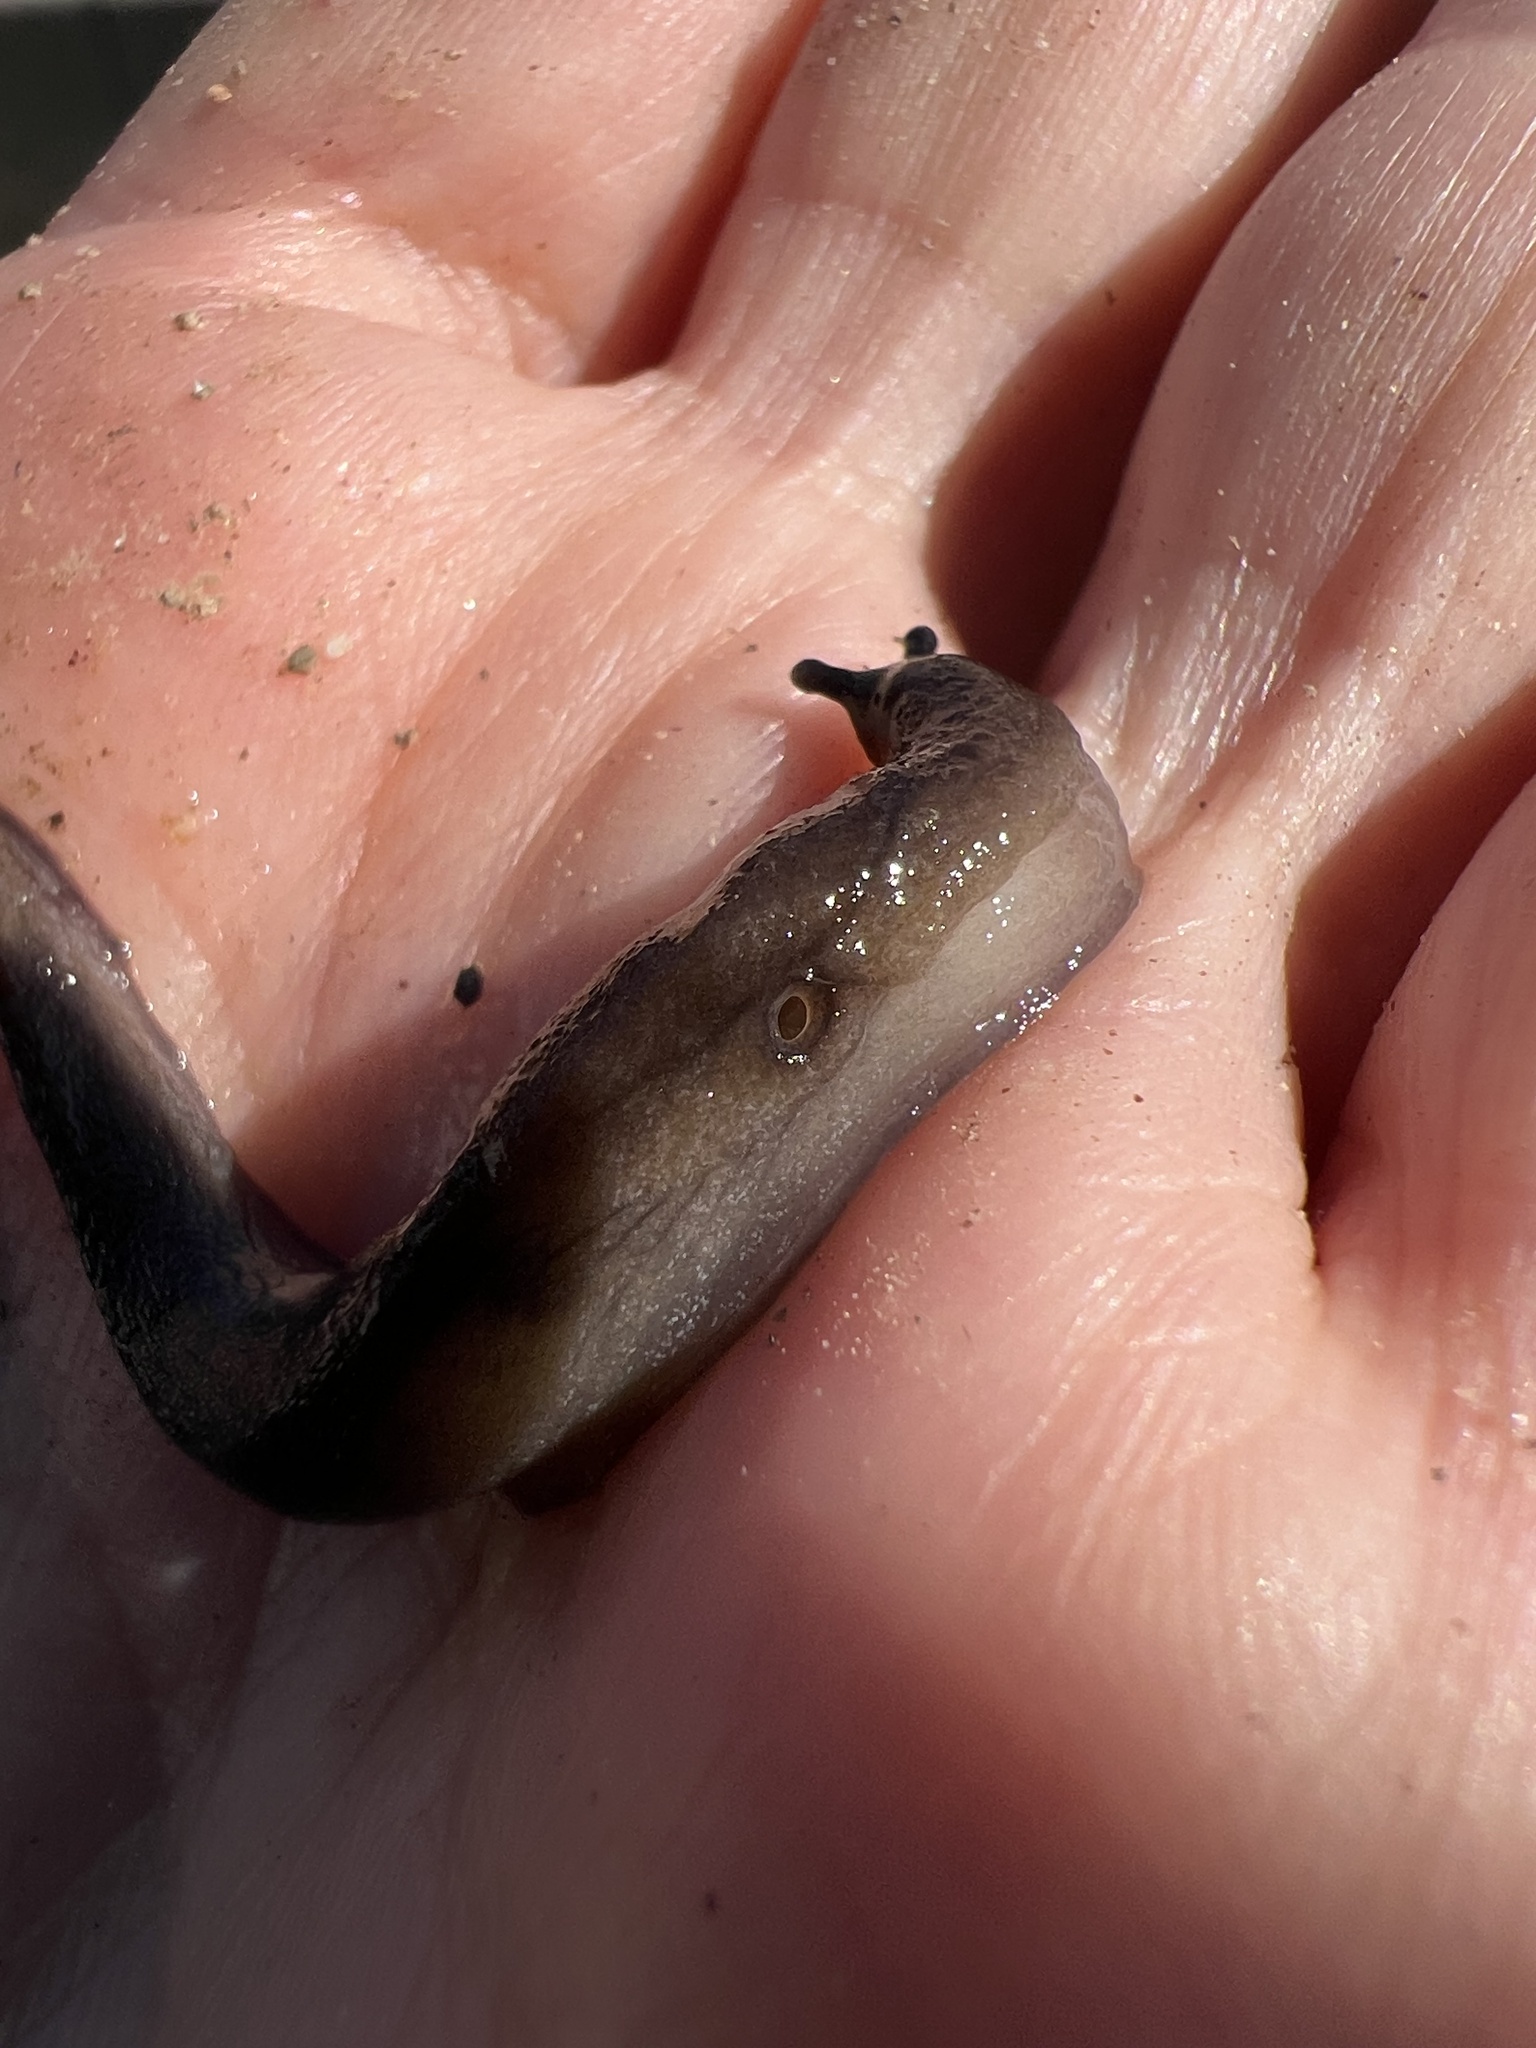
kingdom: Animalia
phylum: Mollusca
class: Gastropoda
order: Stylommatophora
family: Milacidae
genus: Milax
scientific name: Milax gagates
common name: Greenhouse slug
